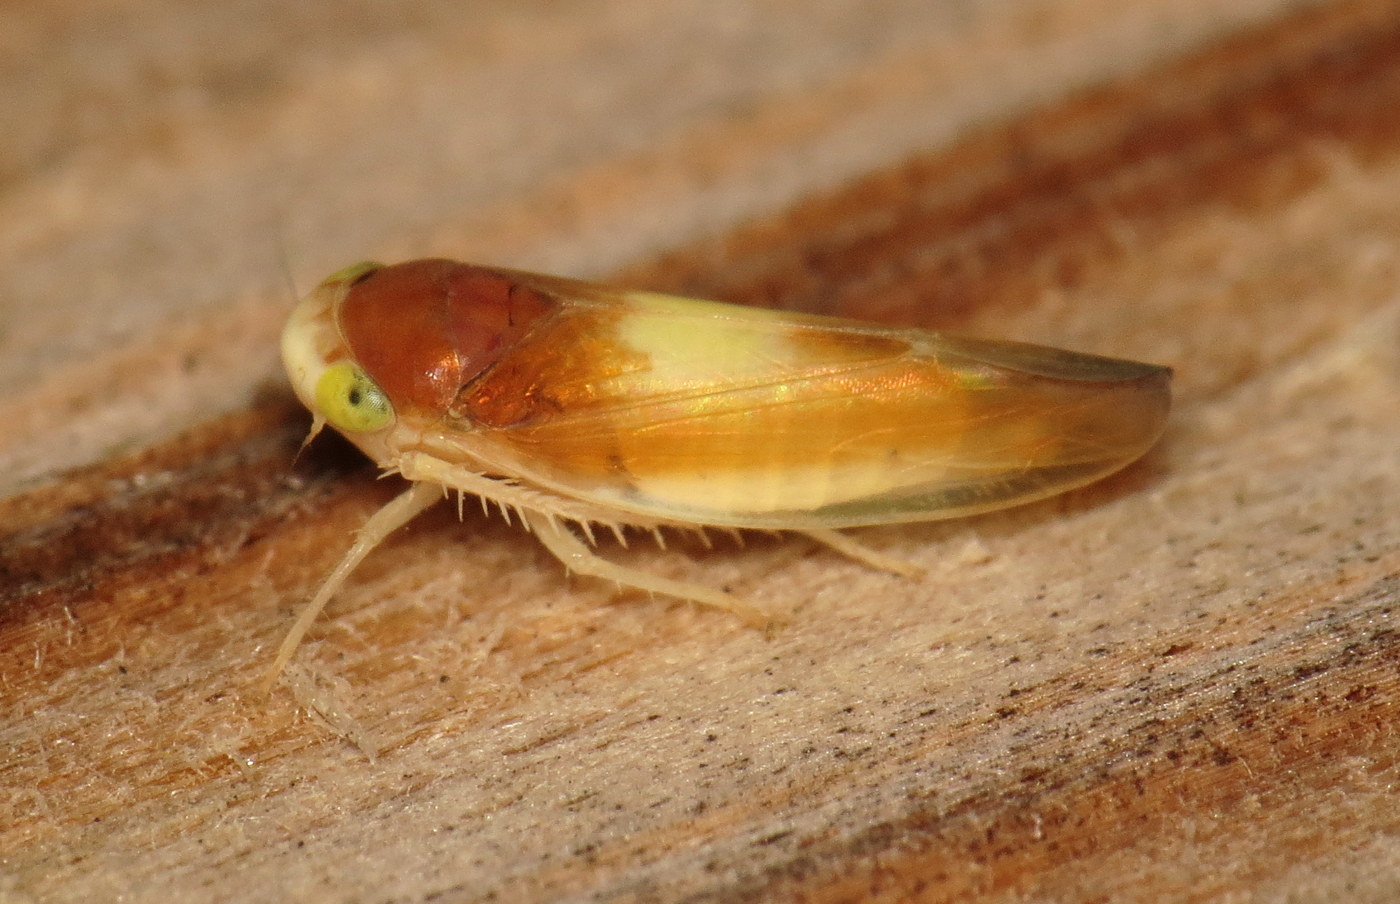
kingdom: Animalia
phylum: Arthropoda
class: Insecta
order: Hemiptera
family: Cicadellidae
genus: Colladonus
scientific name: Colladonus setaceus
